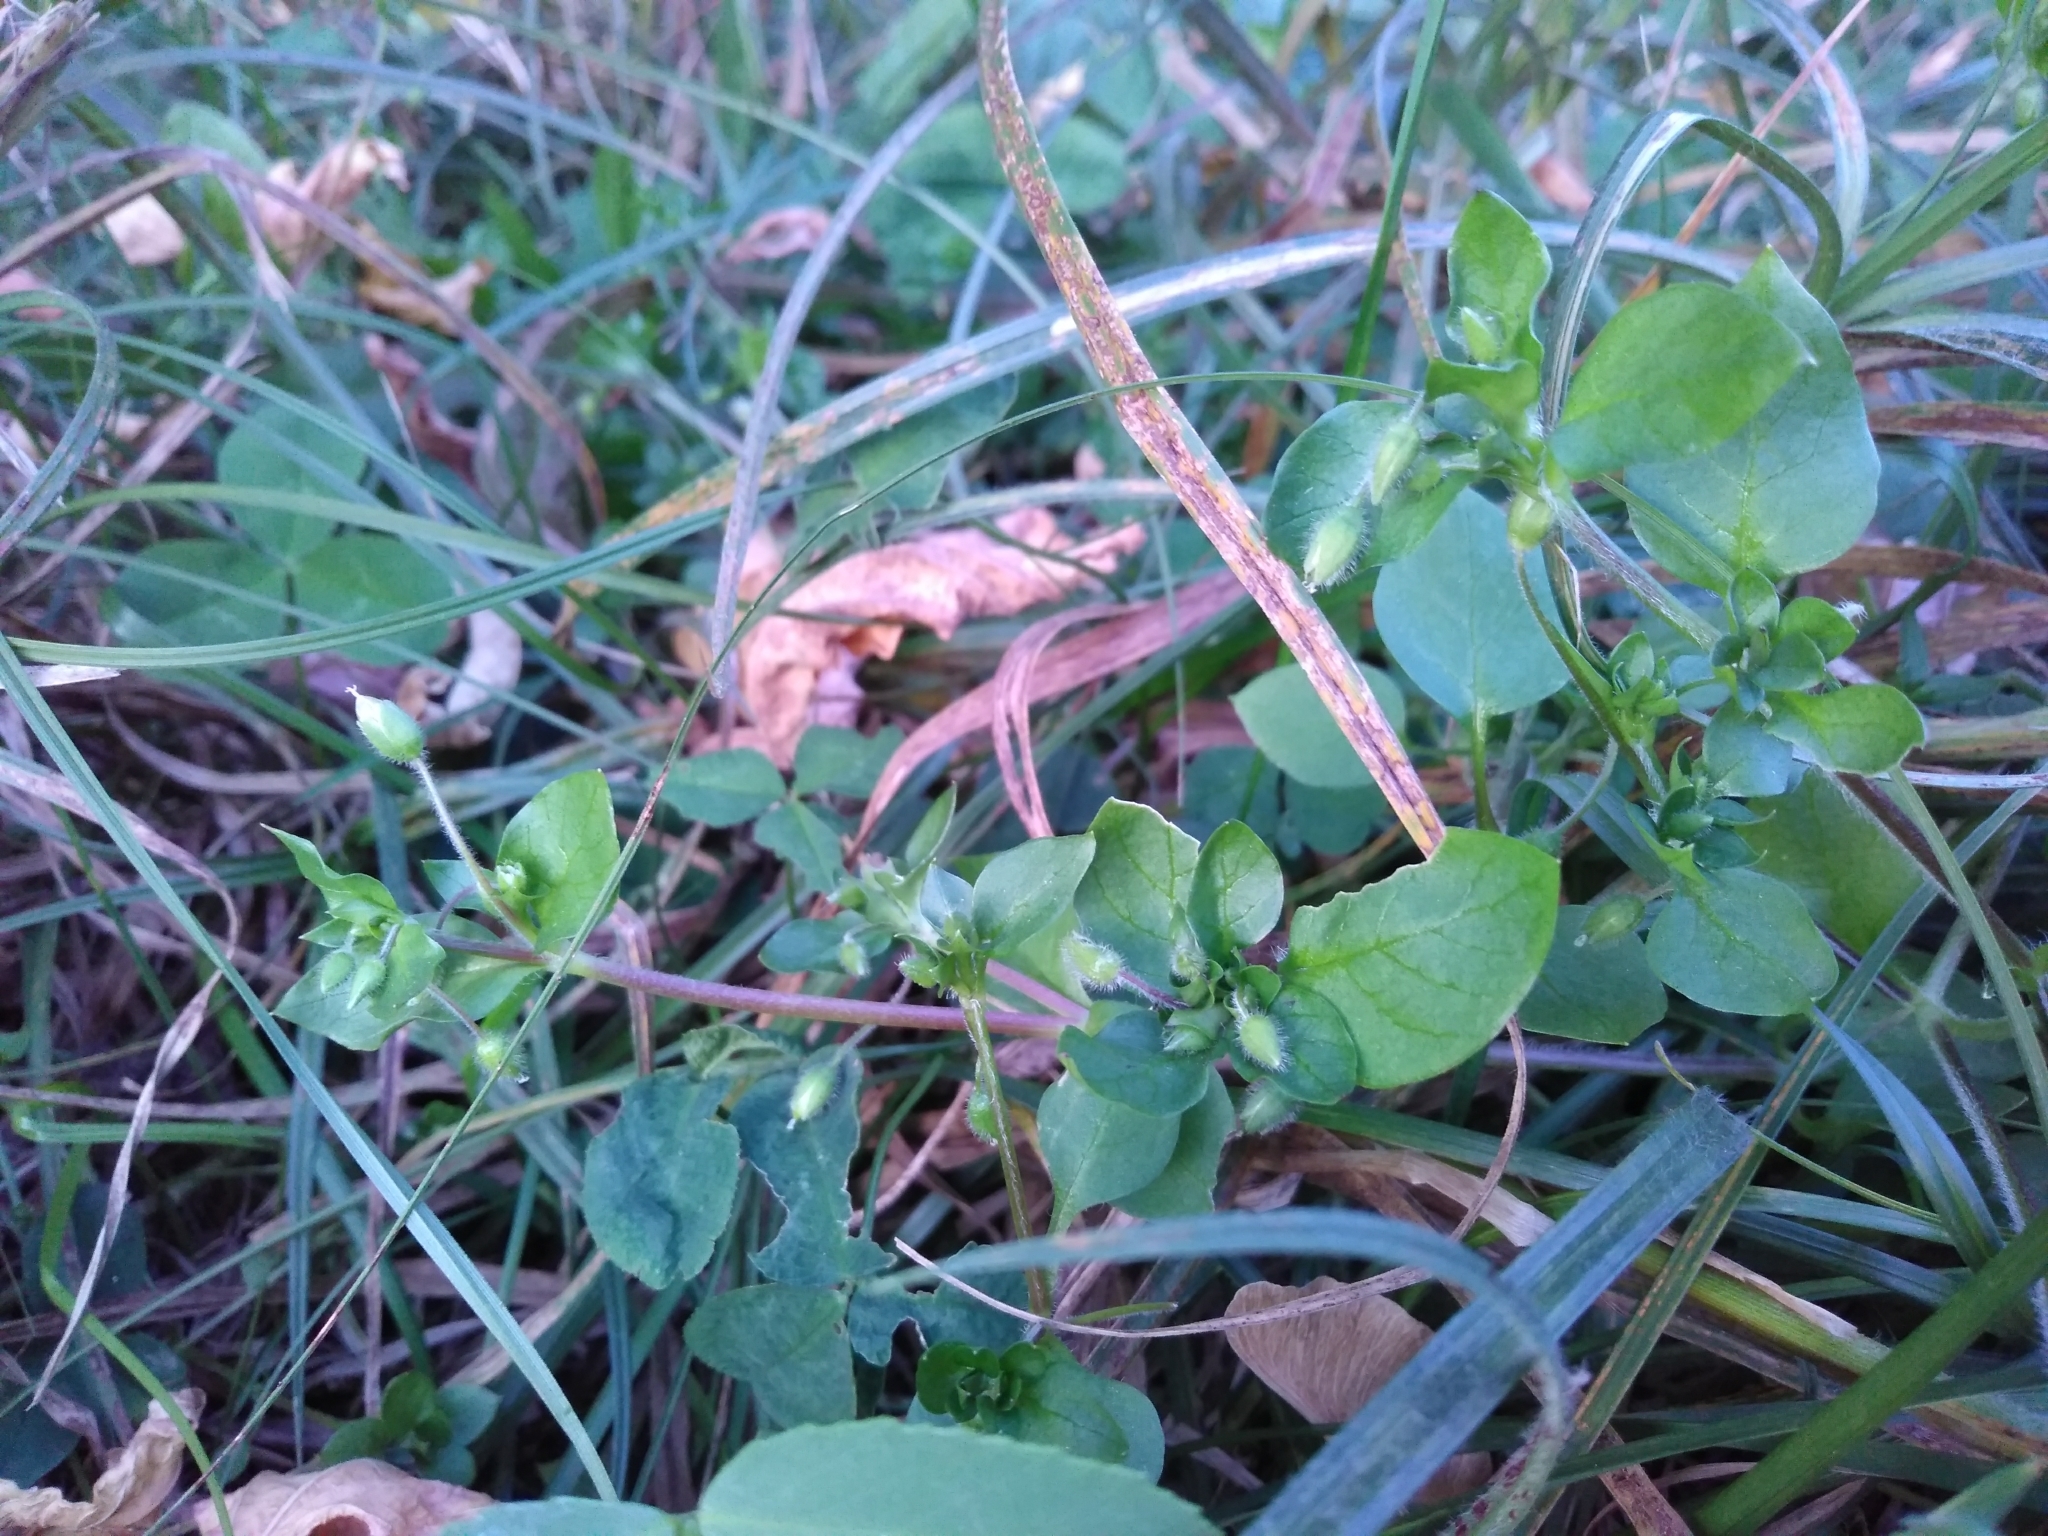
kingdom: Plantae
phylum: Tracheophyta
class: Magnoliopsida
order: Caryophyllales
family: Caryophyllaceae
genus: Stellaria
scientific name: Stellaria media
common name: Common chickweed
